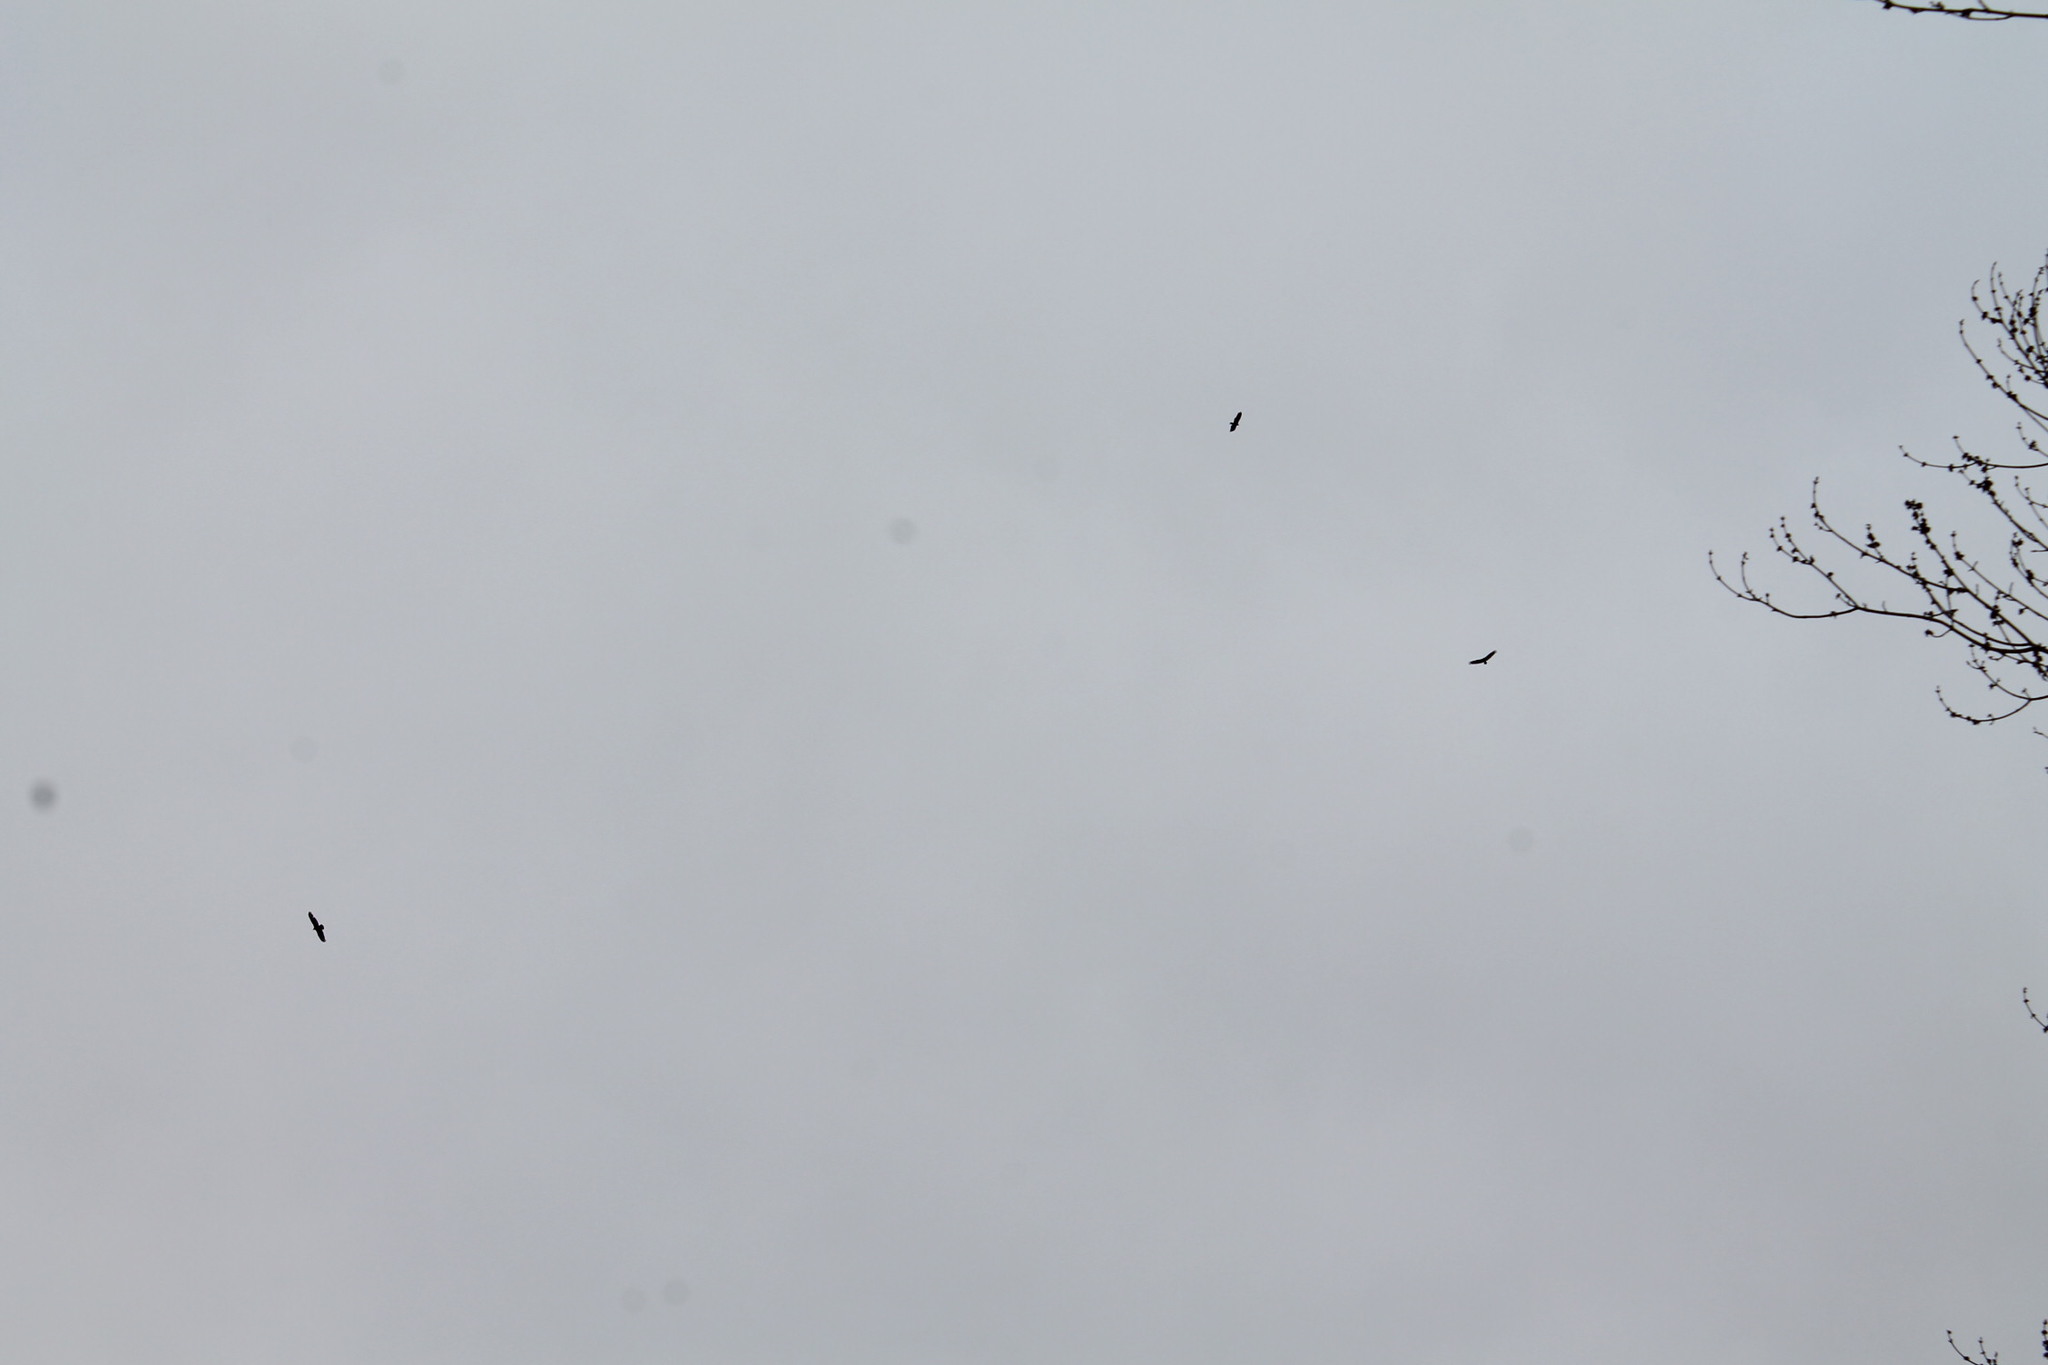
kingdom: Animalia
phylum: Chordata
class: Aves
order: Accipitriformes
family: Cathartidae
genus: Cathartes
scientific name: Cathartes aura
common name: Turkey vulture
